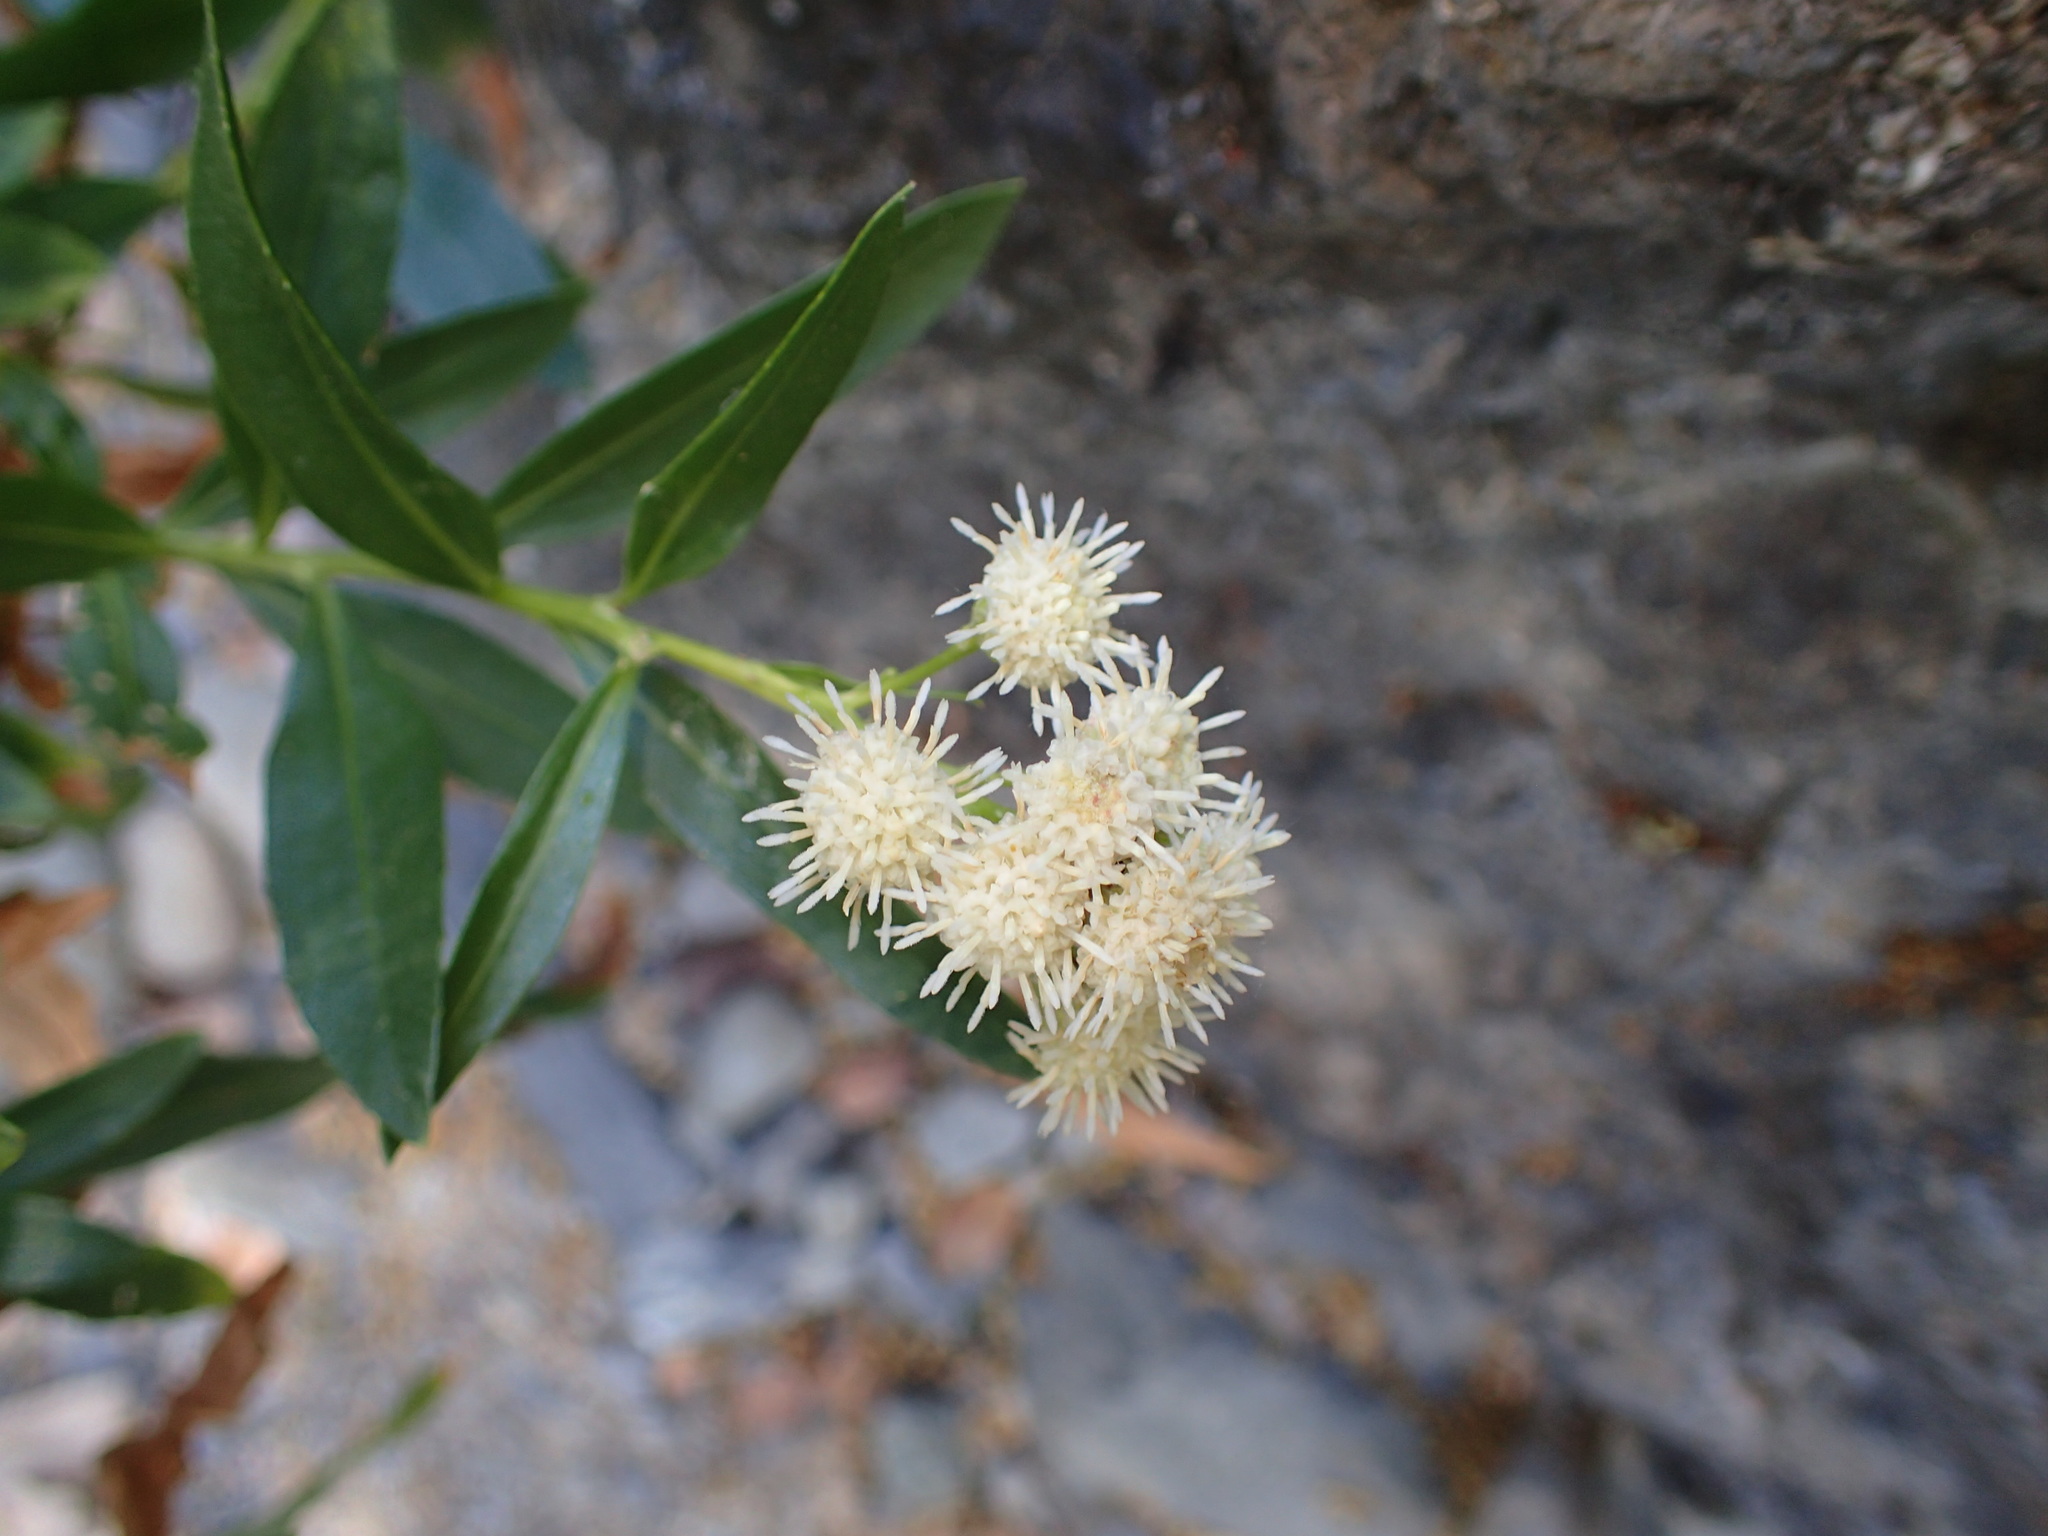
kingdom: Plantae
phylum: Tracheophyta
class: Magnoliopsida
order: Asterales
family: Asteraceae
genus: Baccharis
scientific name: Baccharis salicifolia
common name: Sticky baccharis
